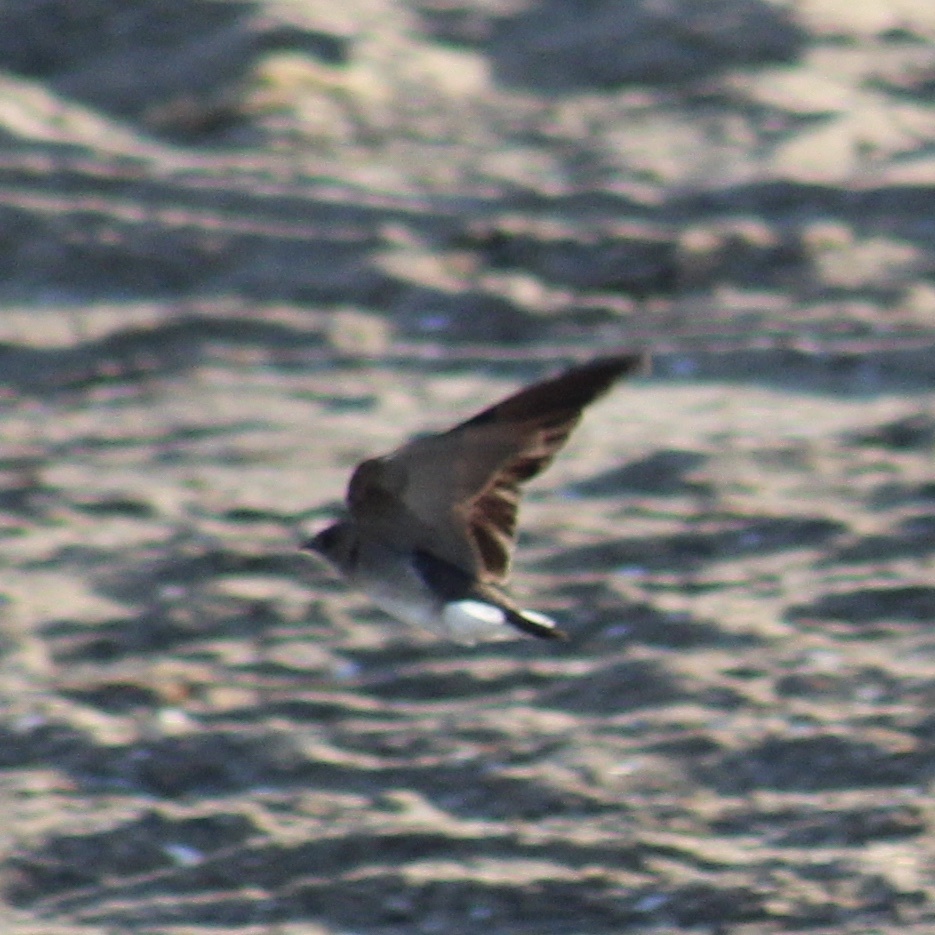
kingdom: Animalia
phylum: Chordata
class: Aves
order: Passeriformes
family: Hirundinidae
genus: Stelgidopteryx
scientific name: Stelgidopteryx serripennis
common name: Northern rough-winged swallow
